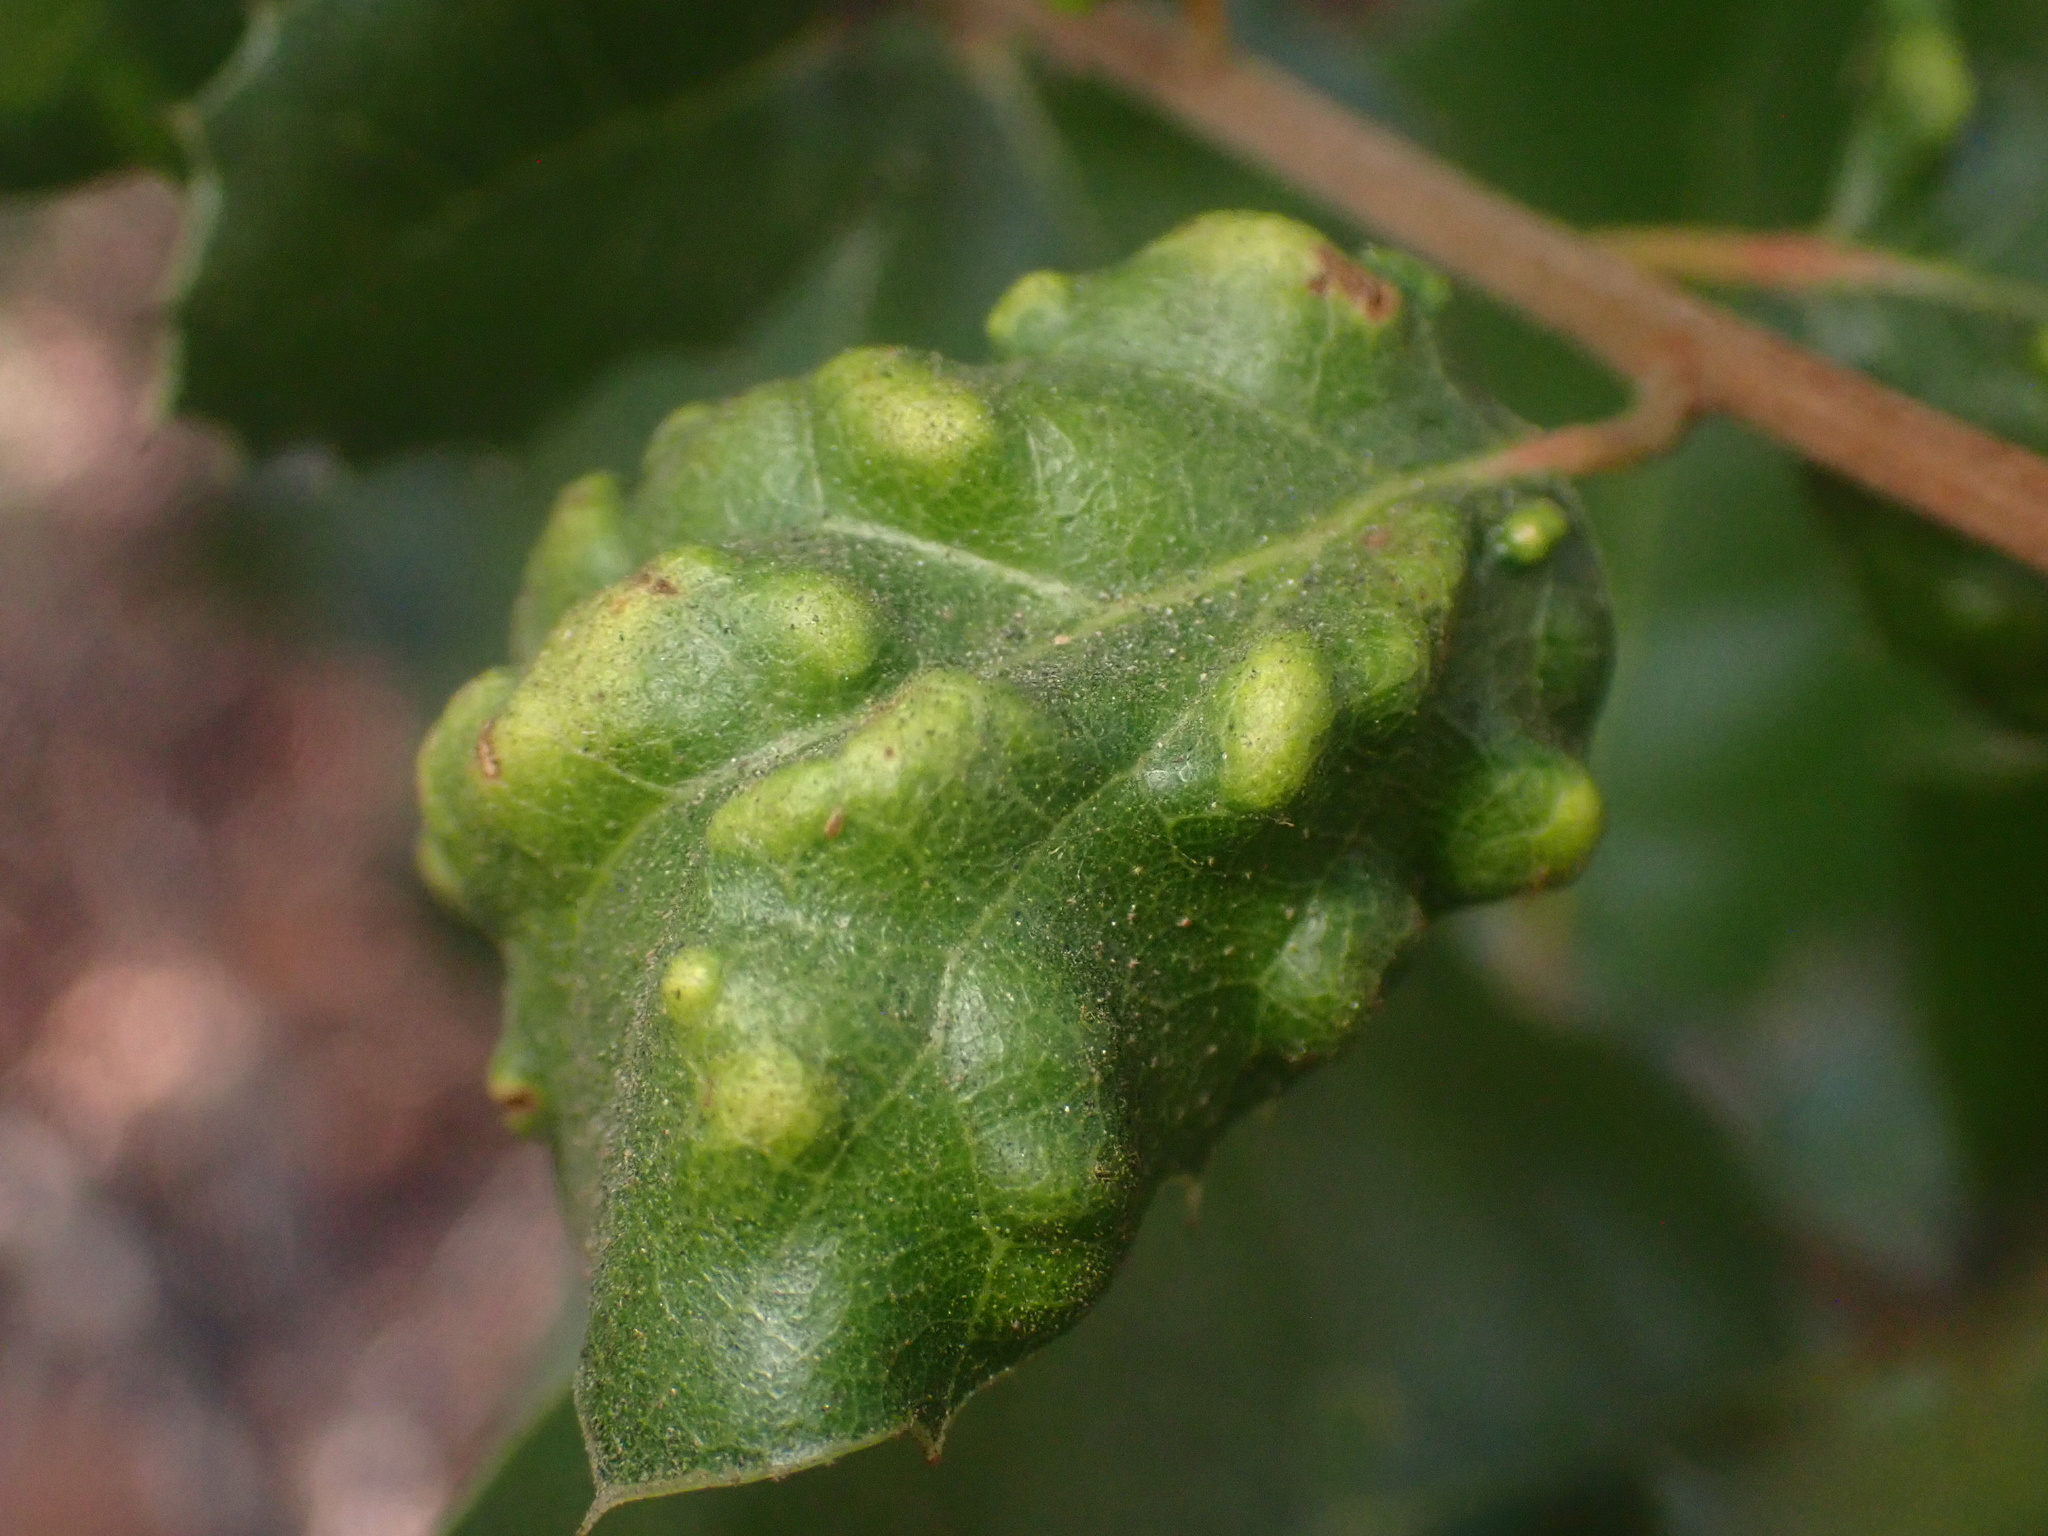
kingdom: Animalia
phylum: Arthropoda
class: Arachnida
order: Trombidiformes
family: Eriophyidae
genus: Aceria
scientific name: Aceria
